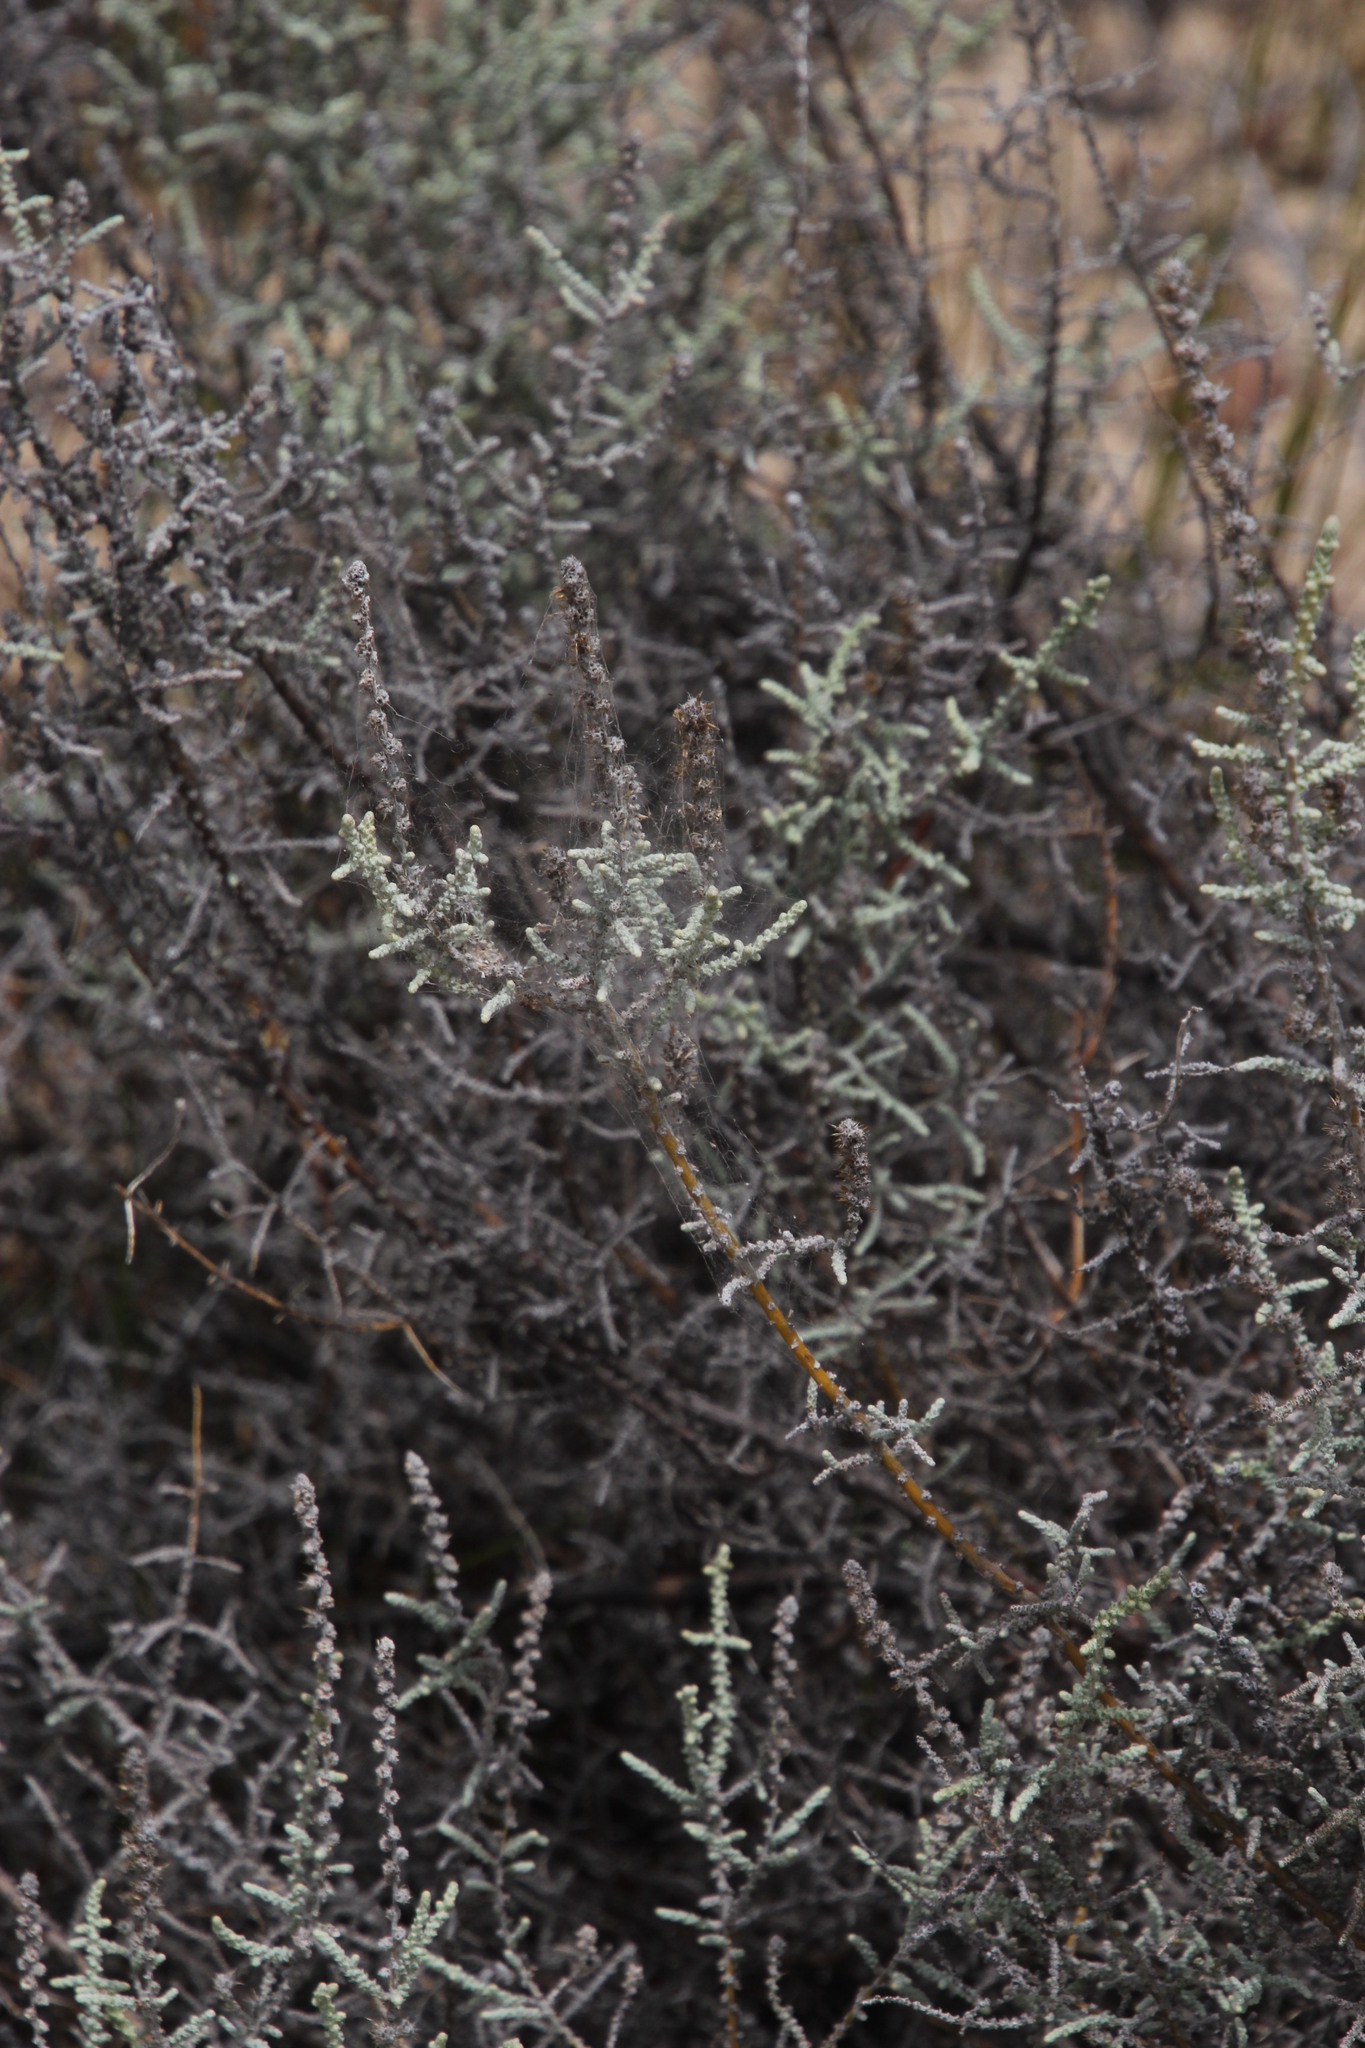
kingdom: Plantae
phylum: Tracheophyta
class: Magnoliopsida
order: Asterales
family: Asteraceae
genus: Seriphium
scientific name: Seriphium plumosum
